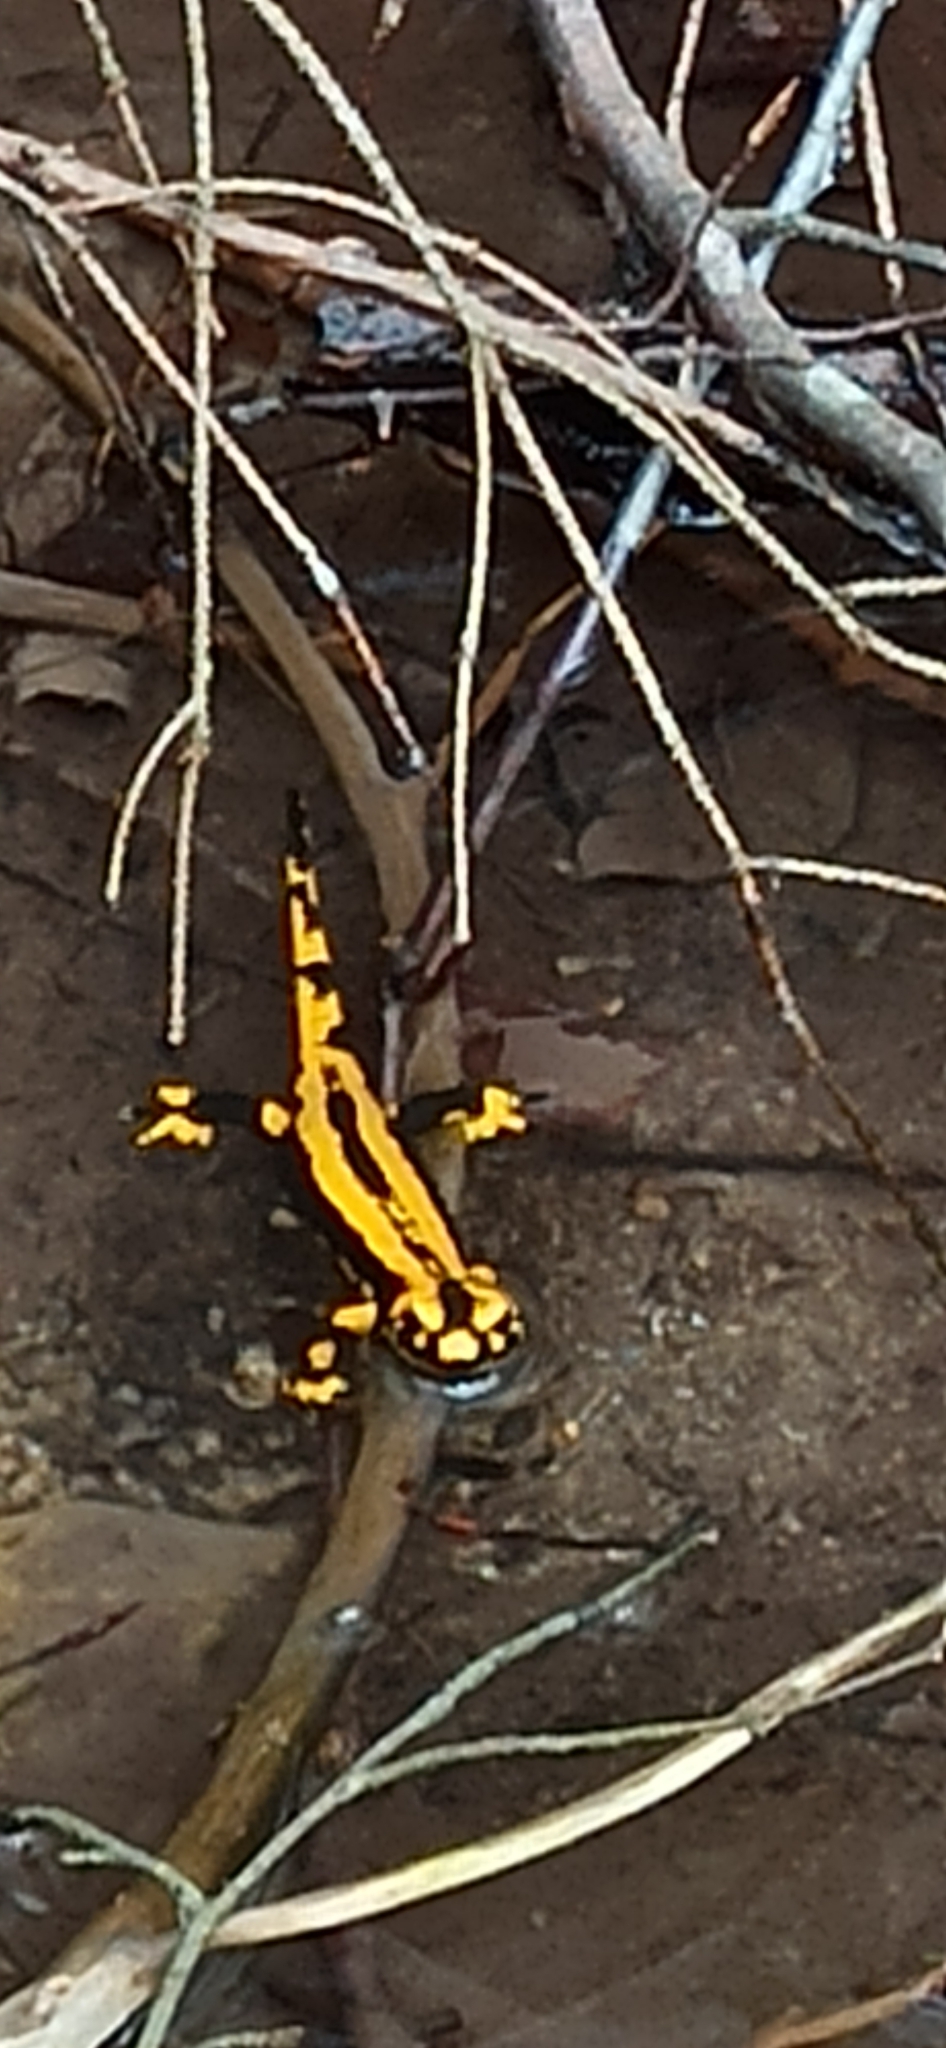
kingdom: Animalia
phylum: Chordata
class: Amphibia
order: Caudata
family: Salamandridae
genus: Salamandra
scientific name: Salamandra salamandra
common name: Fire salamander
